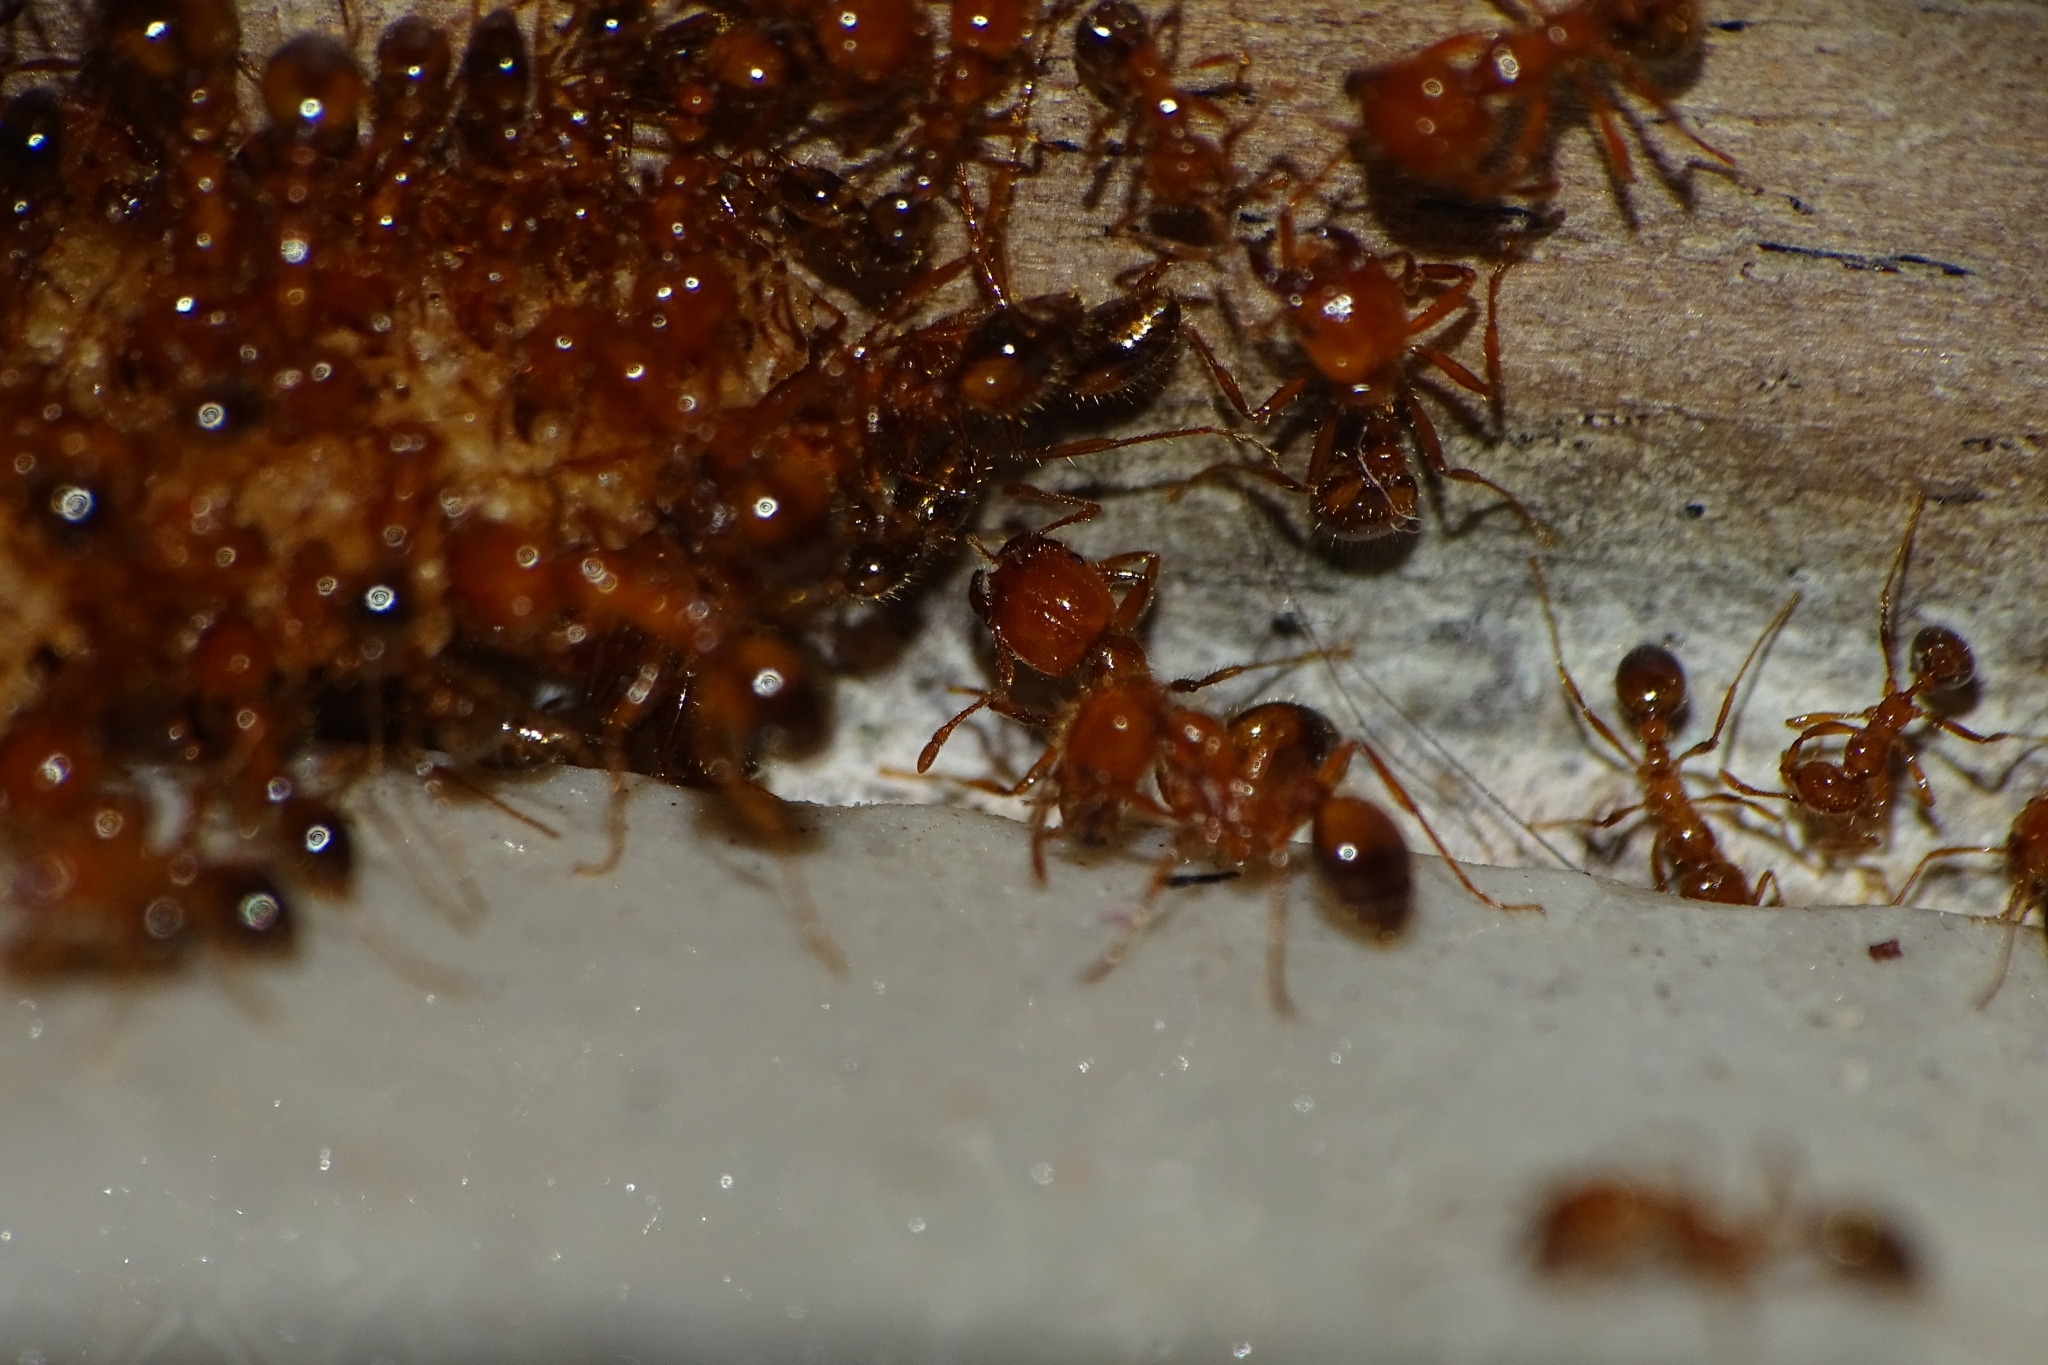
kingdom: Animalia
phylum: Arthropoda
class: Insecta
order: Hymenoptera
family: Formicidae
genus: Solenopsis
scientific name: Solenopsis geminata
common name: Tropical fire ant
